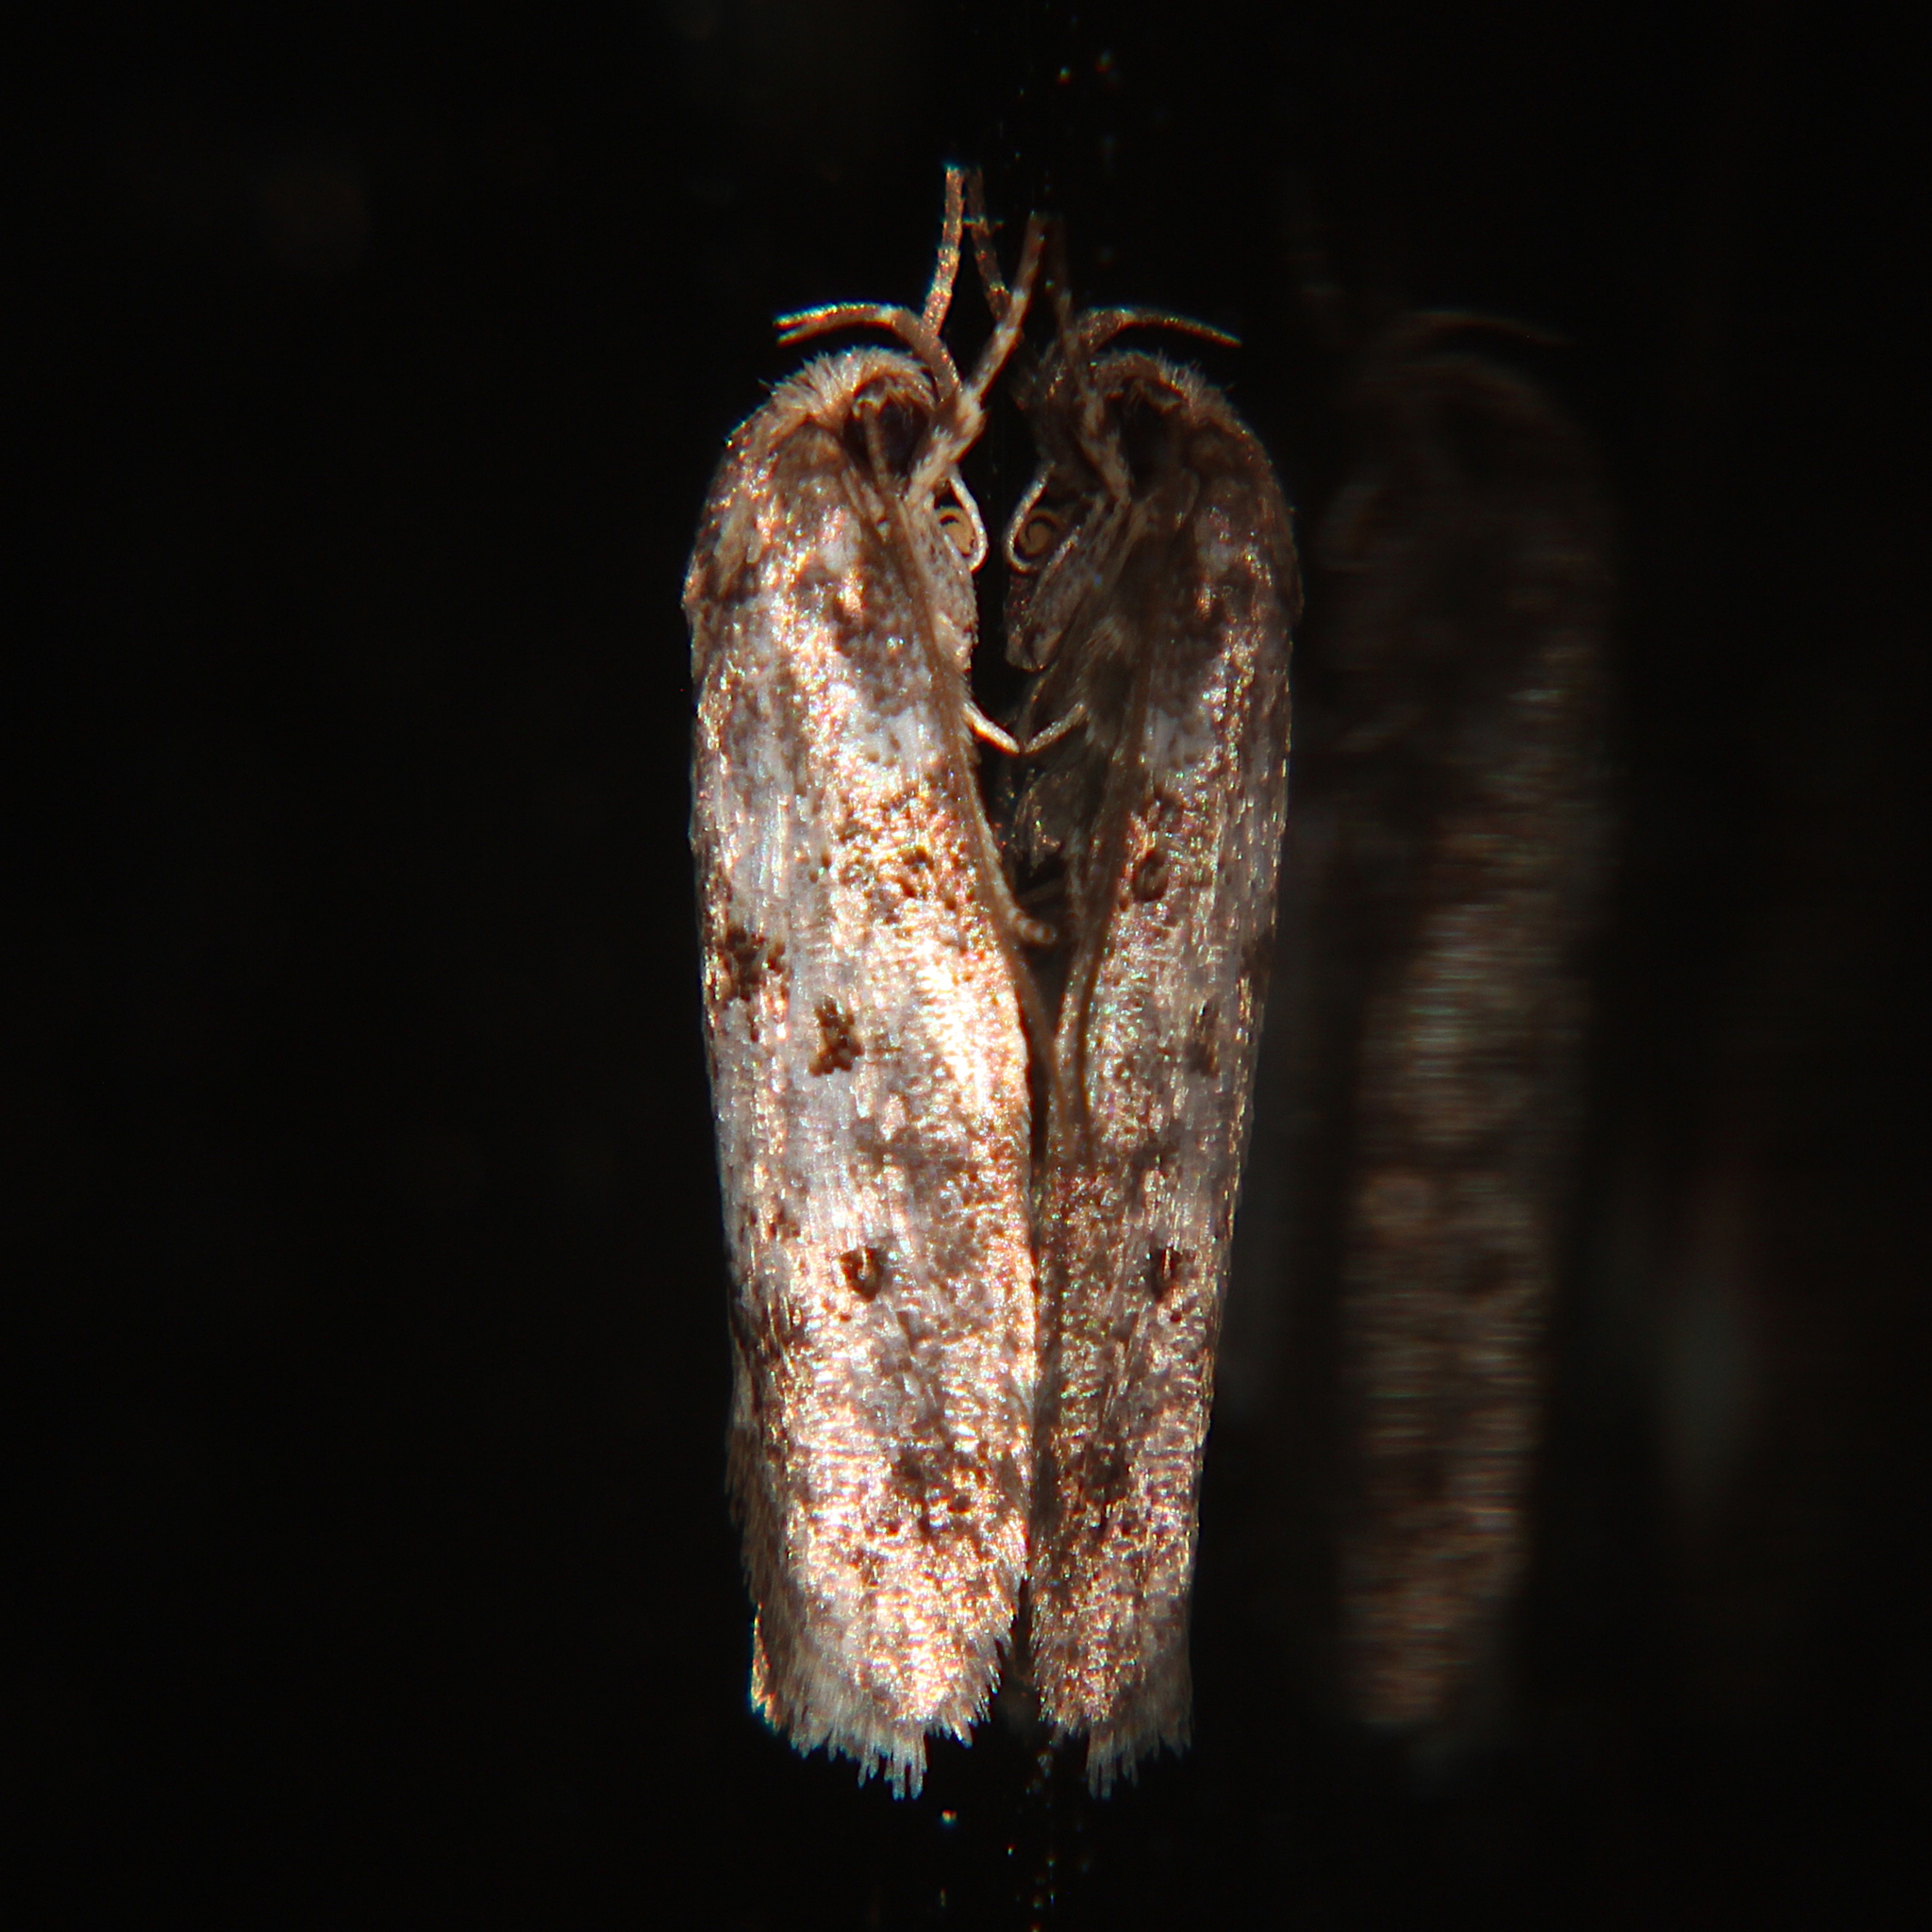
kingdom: Animalia
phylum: Arthropoda
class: Insecta
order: Lepidoptera
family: Oecophoridae
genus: Tingena
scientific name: Tingena clarkei
